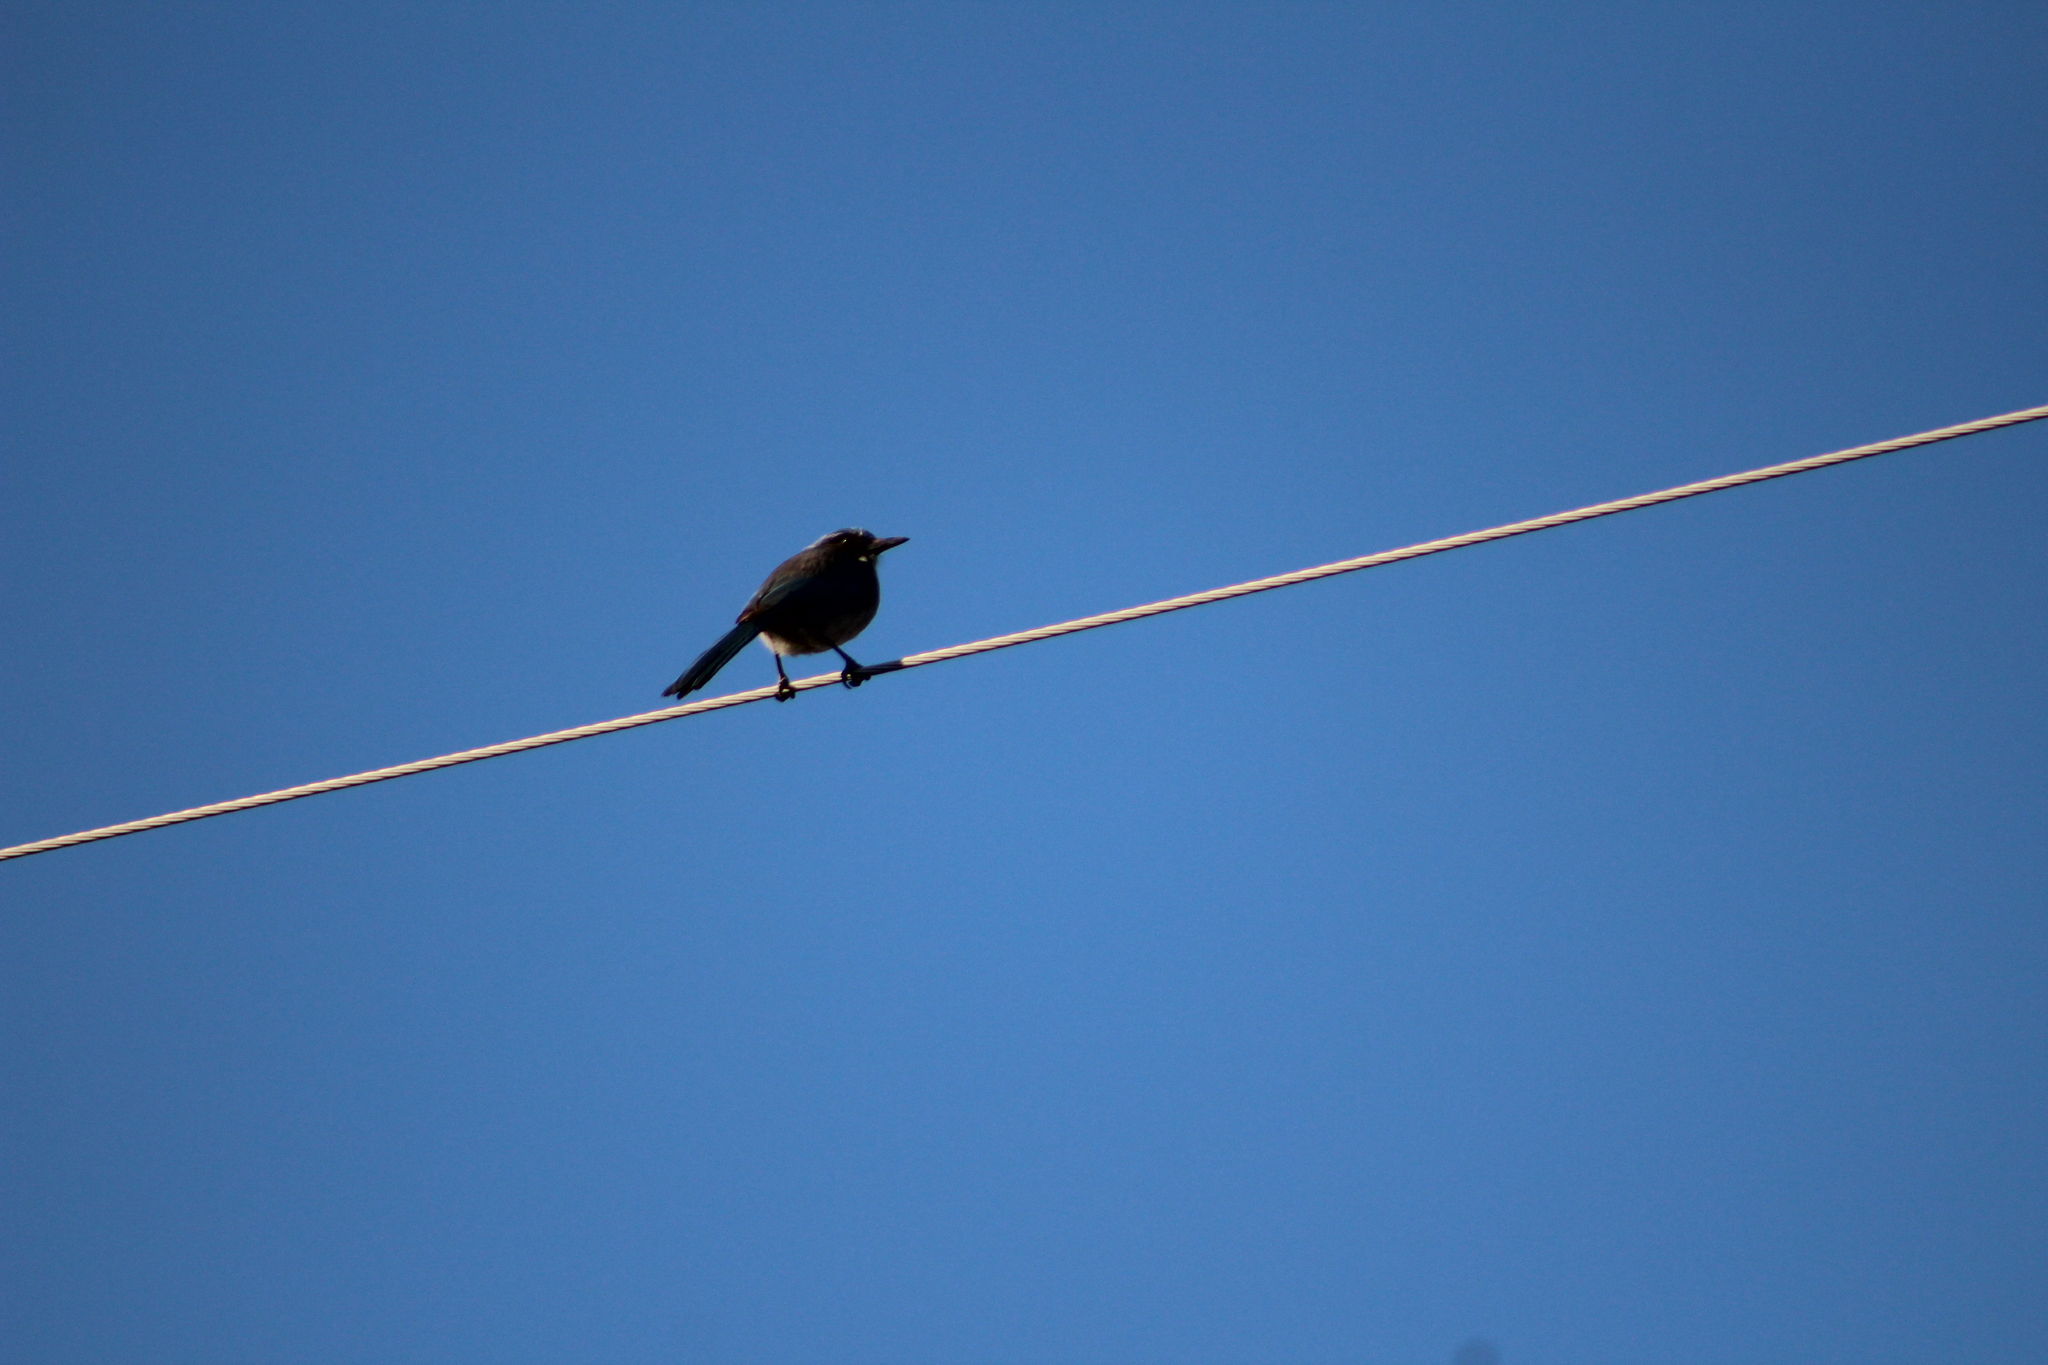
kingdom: Animalia
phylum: Chordata
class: Aves
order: Passeriformes
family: Corvidae
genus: Aphelocoma
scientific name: Aphelocoma woodhouseii
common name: Woodhouse's scrub-jay
